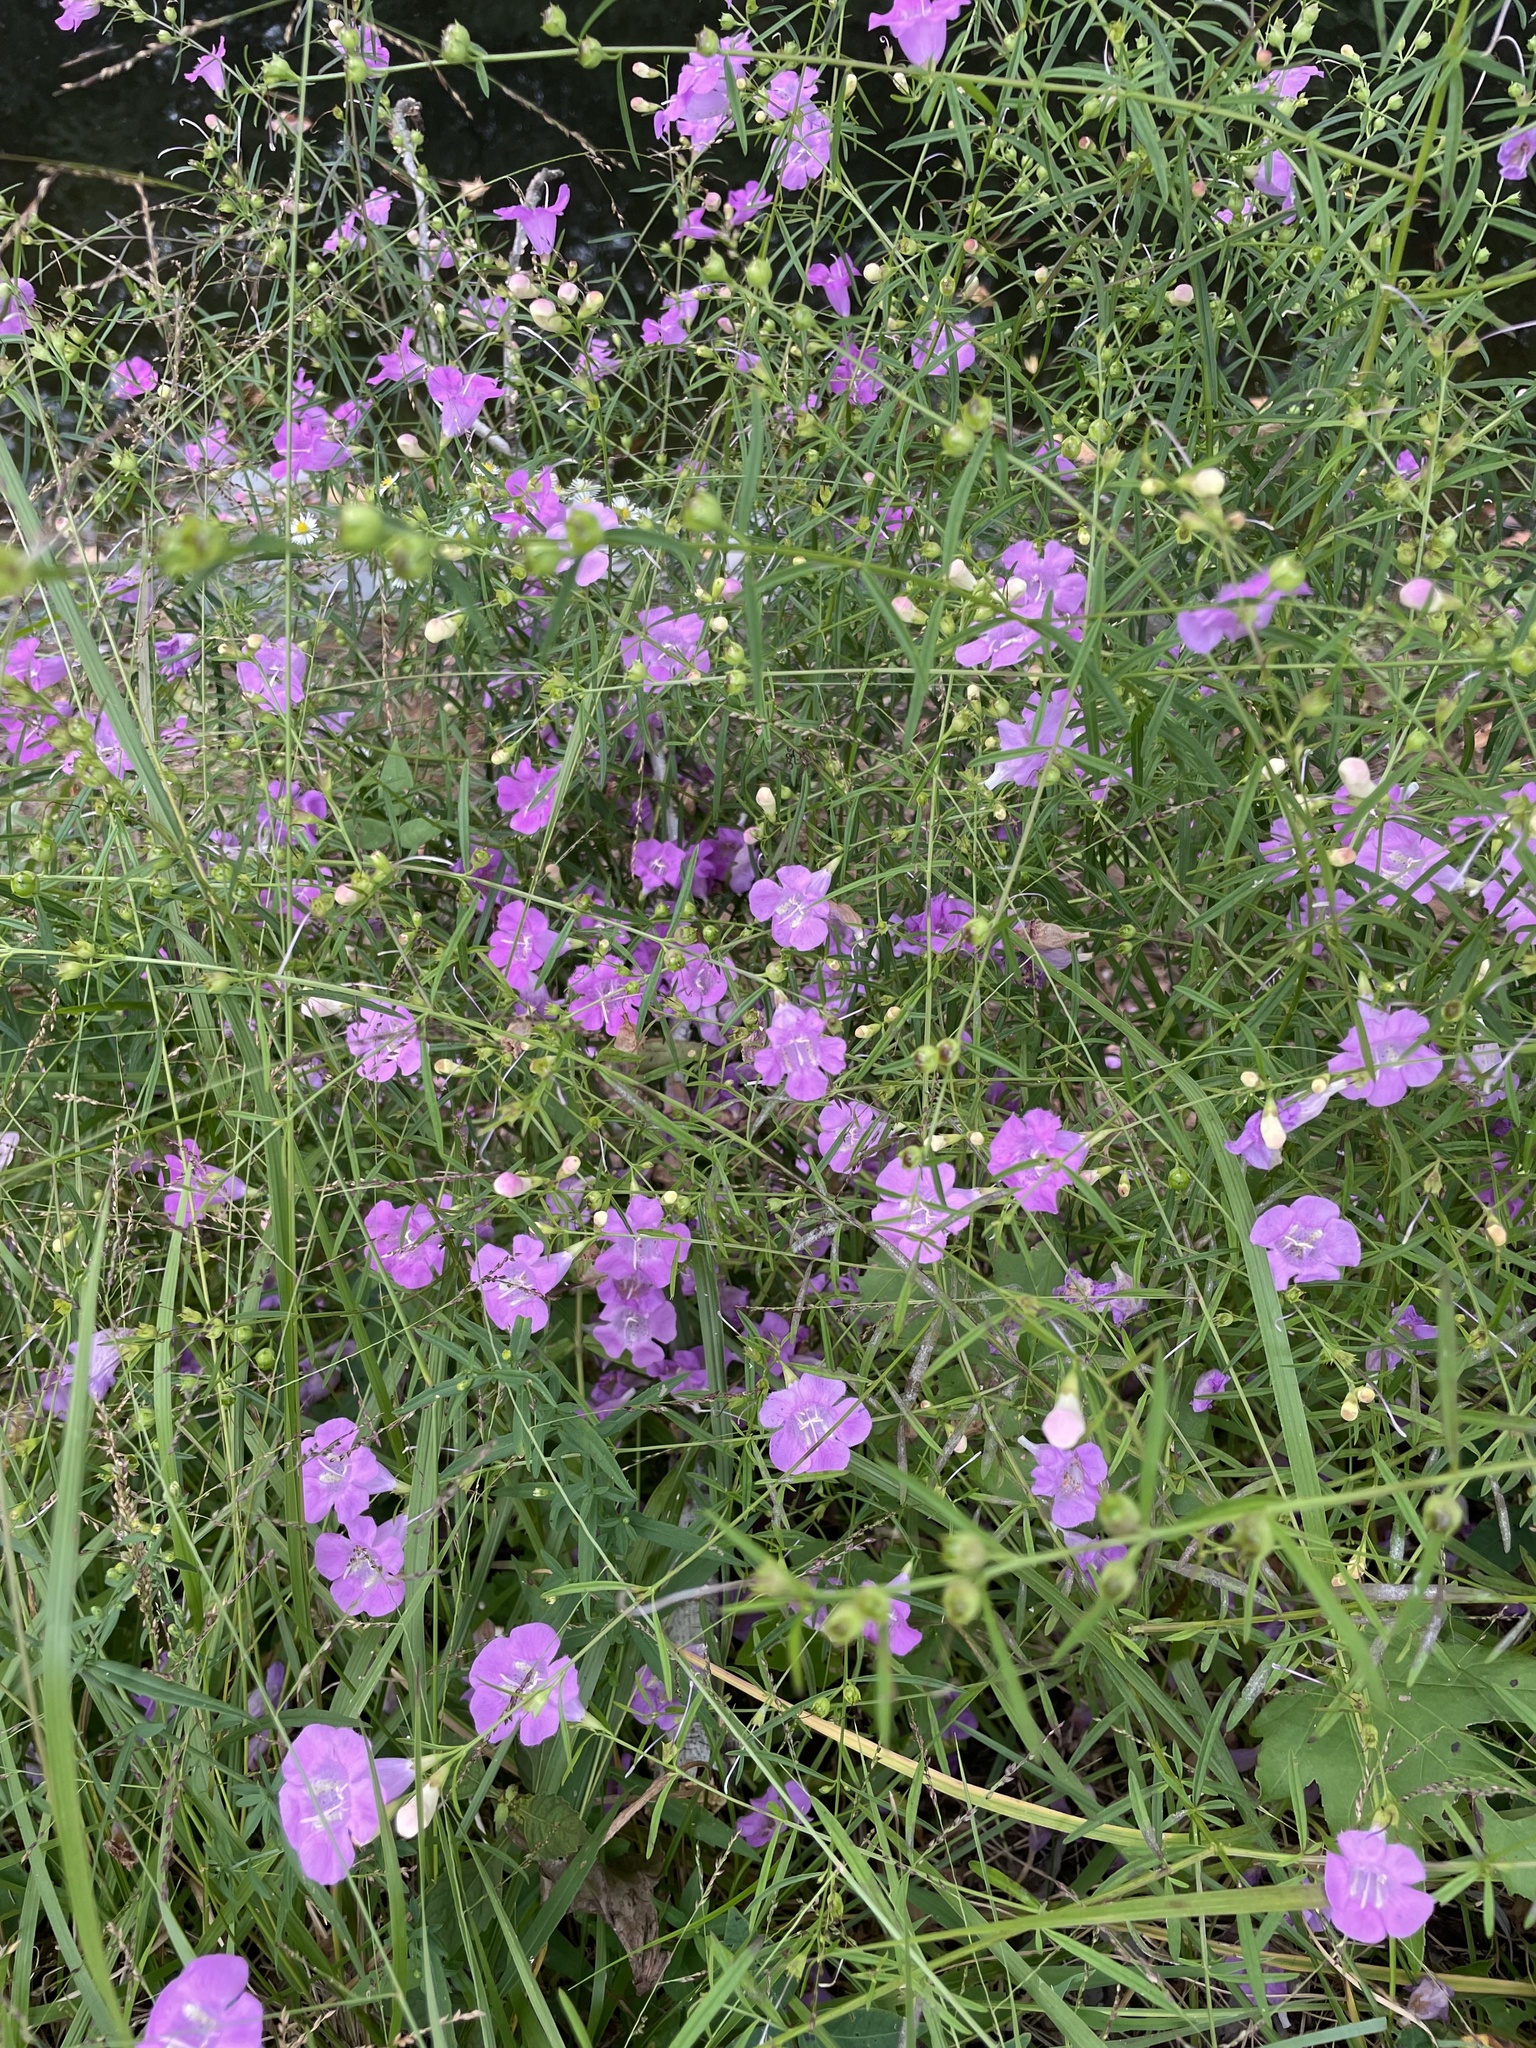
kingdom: Plantae
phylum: Tracheophyta
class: Magnoliopsida
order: Lamiales
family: Orobanchaceae
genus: Agalinis
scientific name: Agalinis purpurea
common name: Purple false foxglove
